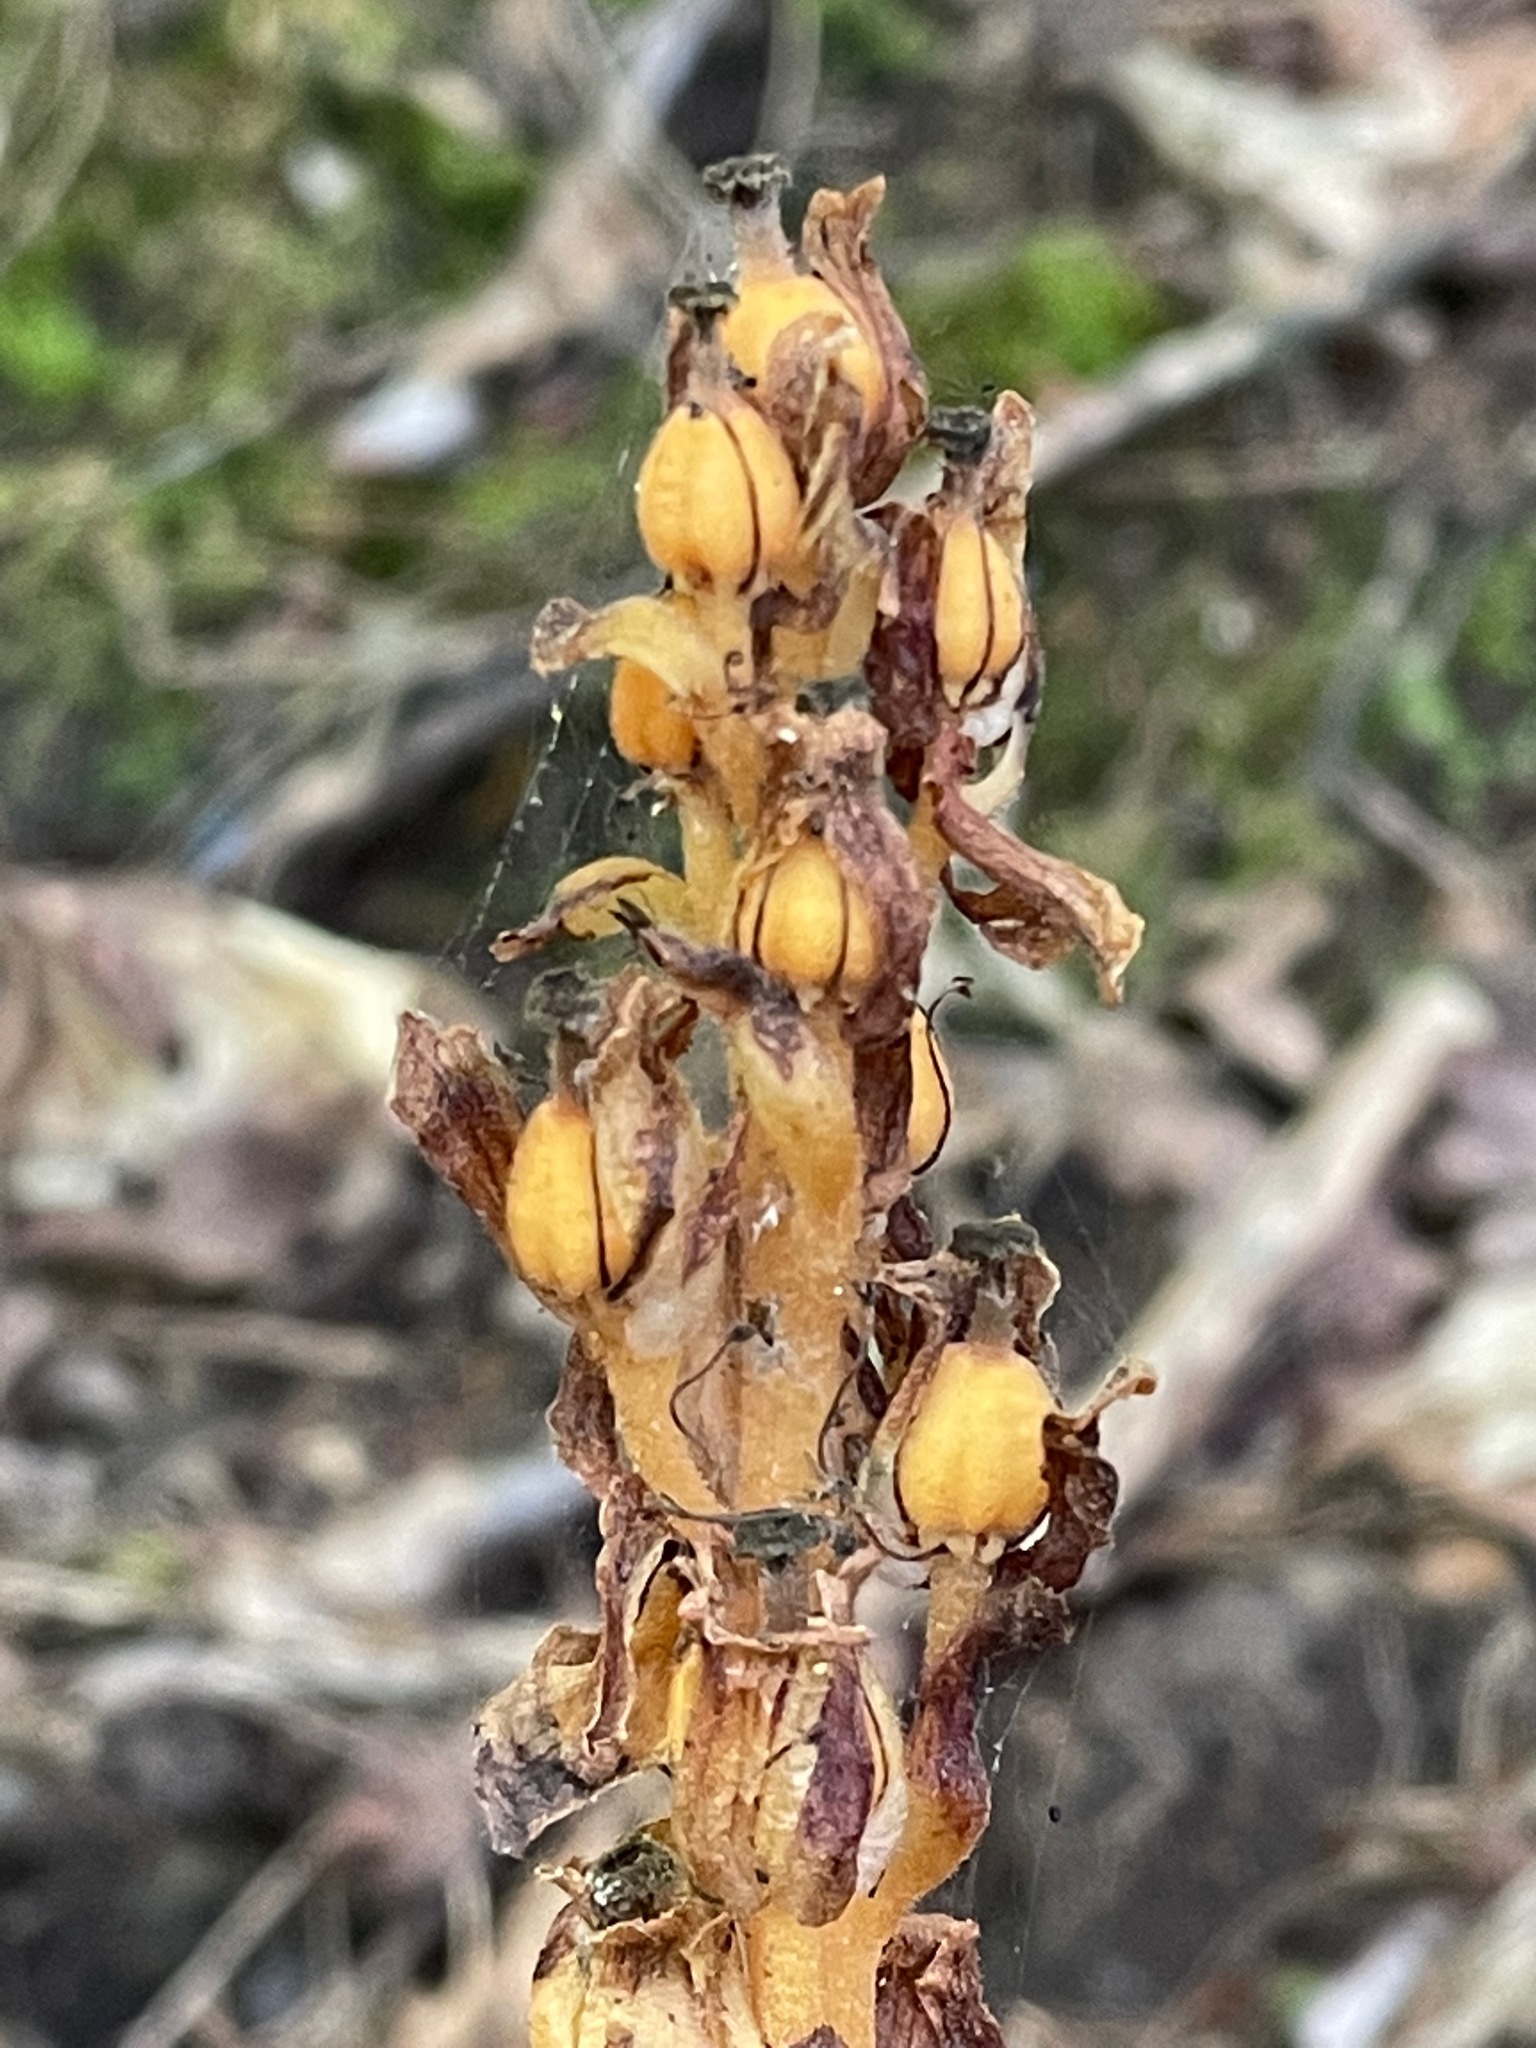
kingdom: Plantae
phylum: Tracheophyta
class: Magnoliopsida
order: Ericales
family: Ericaceae
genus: Hypopitys
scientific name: Hypopitys monotropa
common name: Yellow bird's-nest
